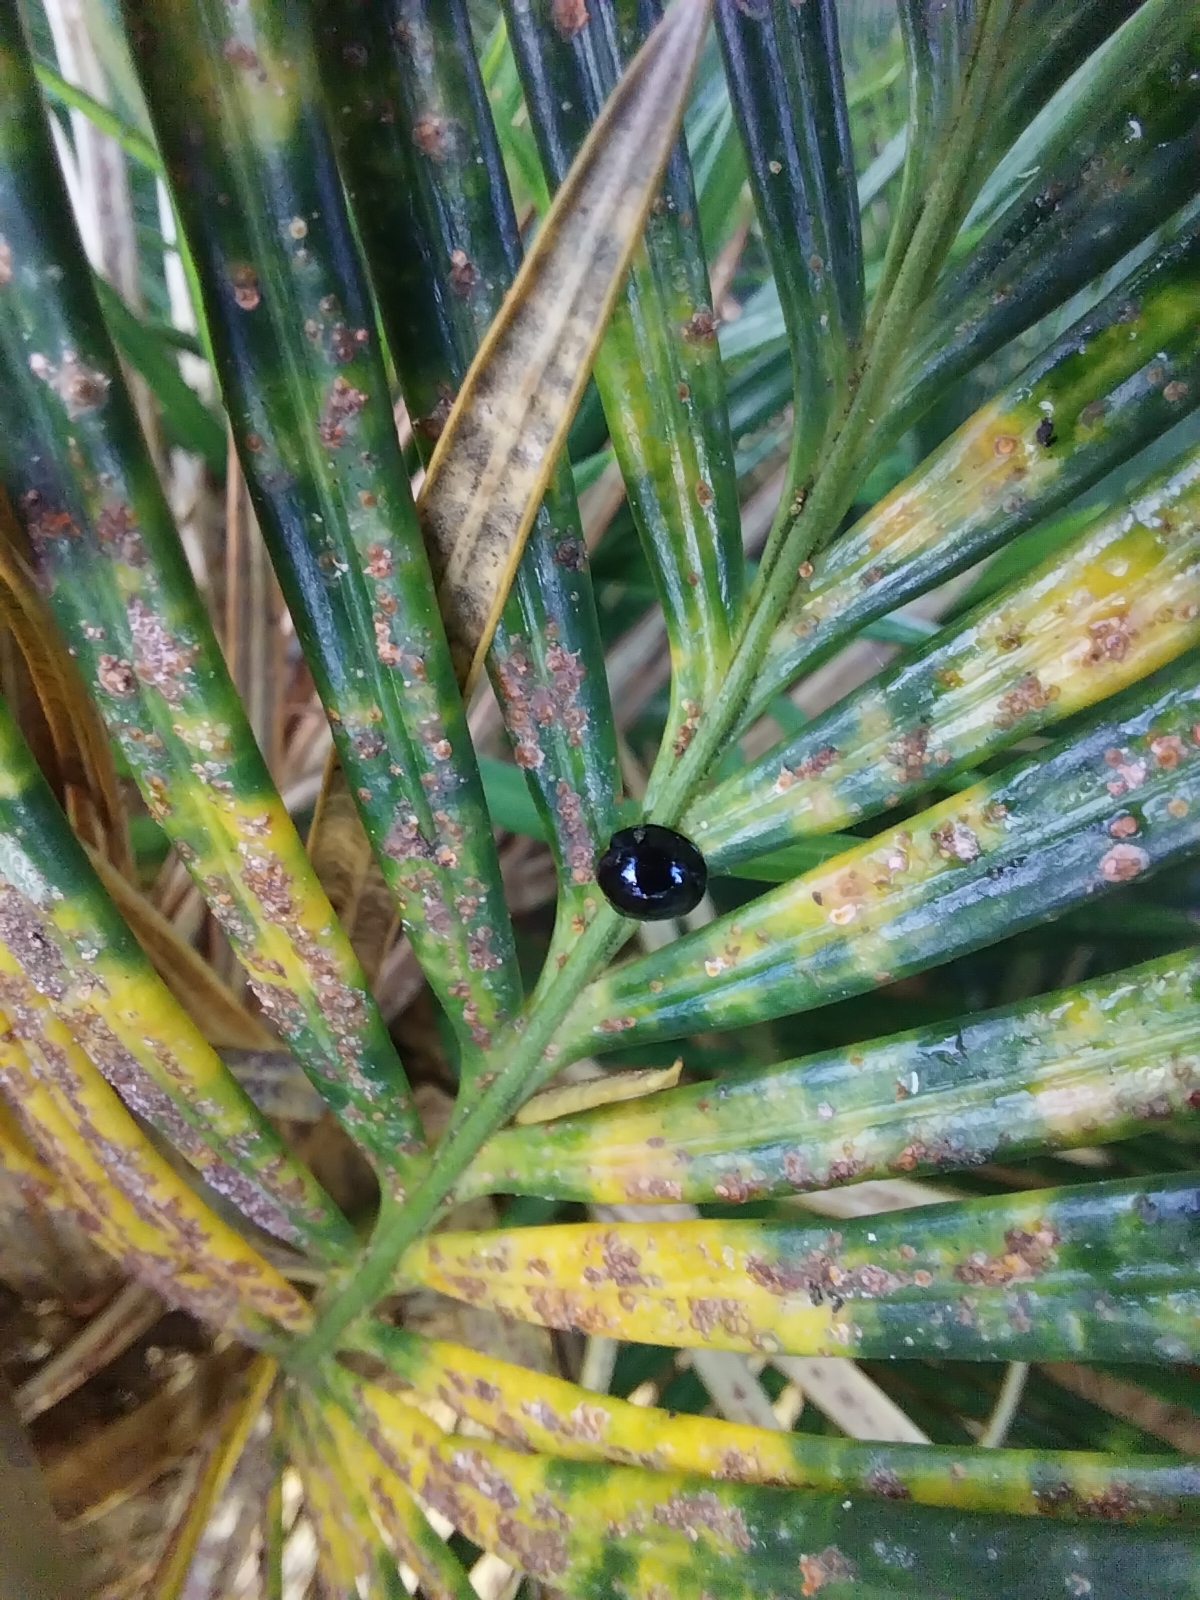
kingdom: Animalia
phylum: Arthropoda
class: Insecta
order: Coleoptera
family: Coccinellidae
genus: Chilocorus
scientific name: Chilocorus nigritus
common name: Ladybird beetle
